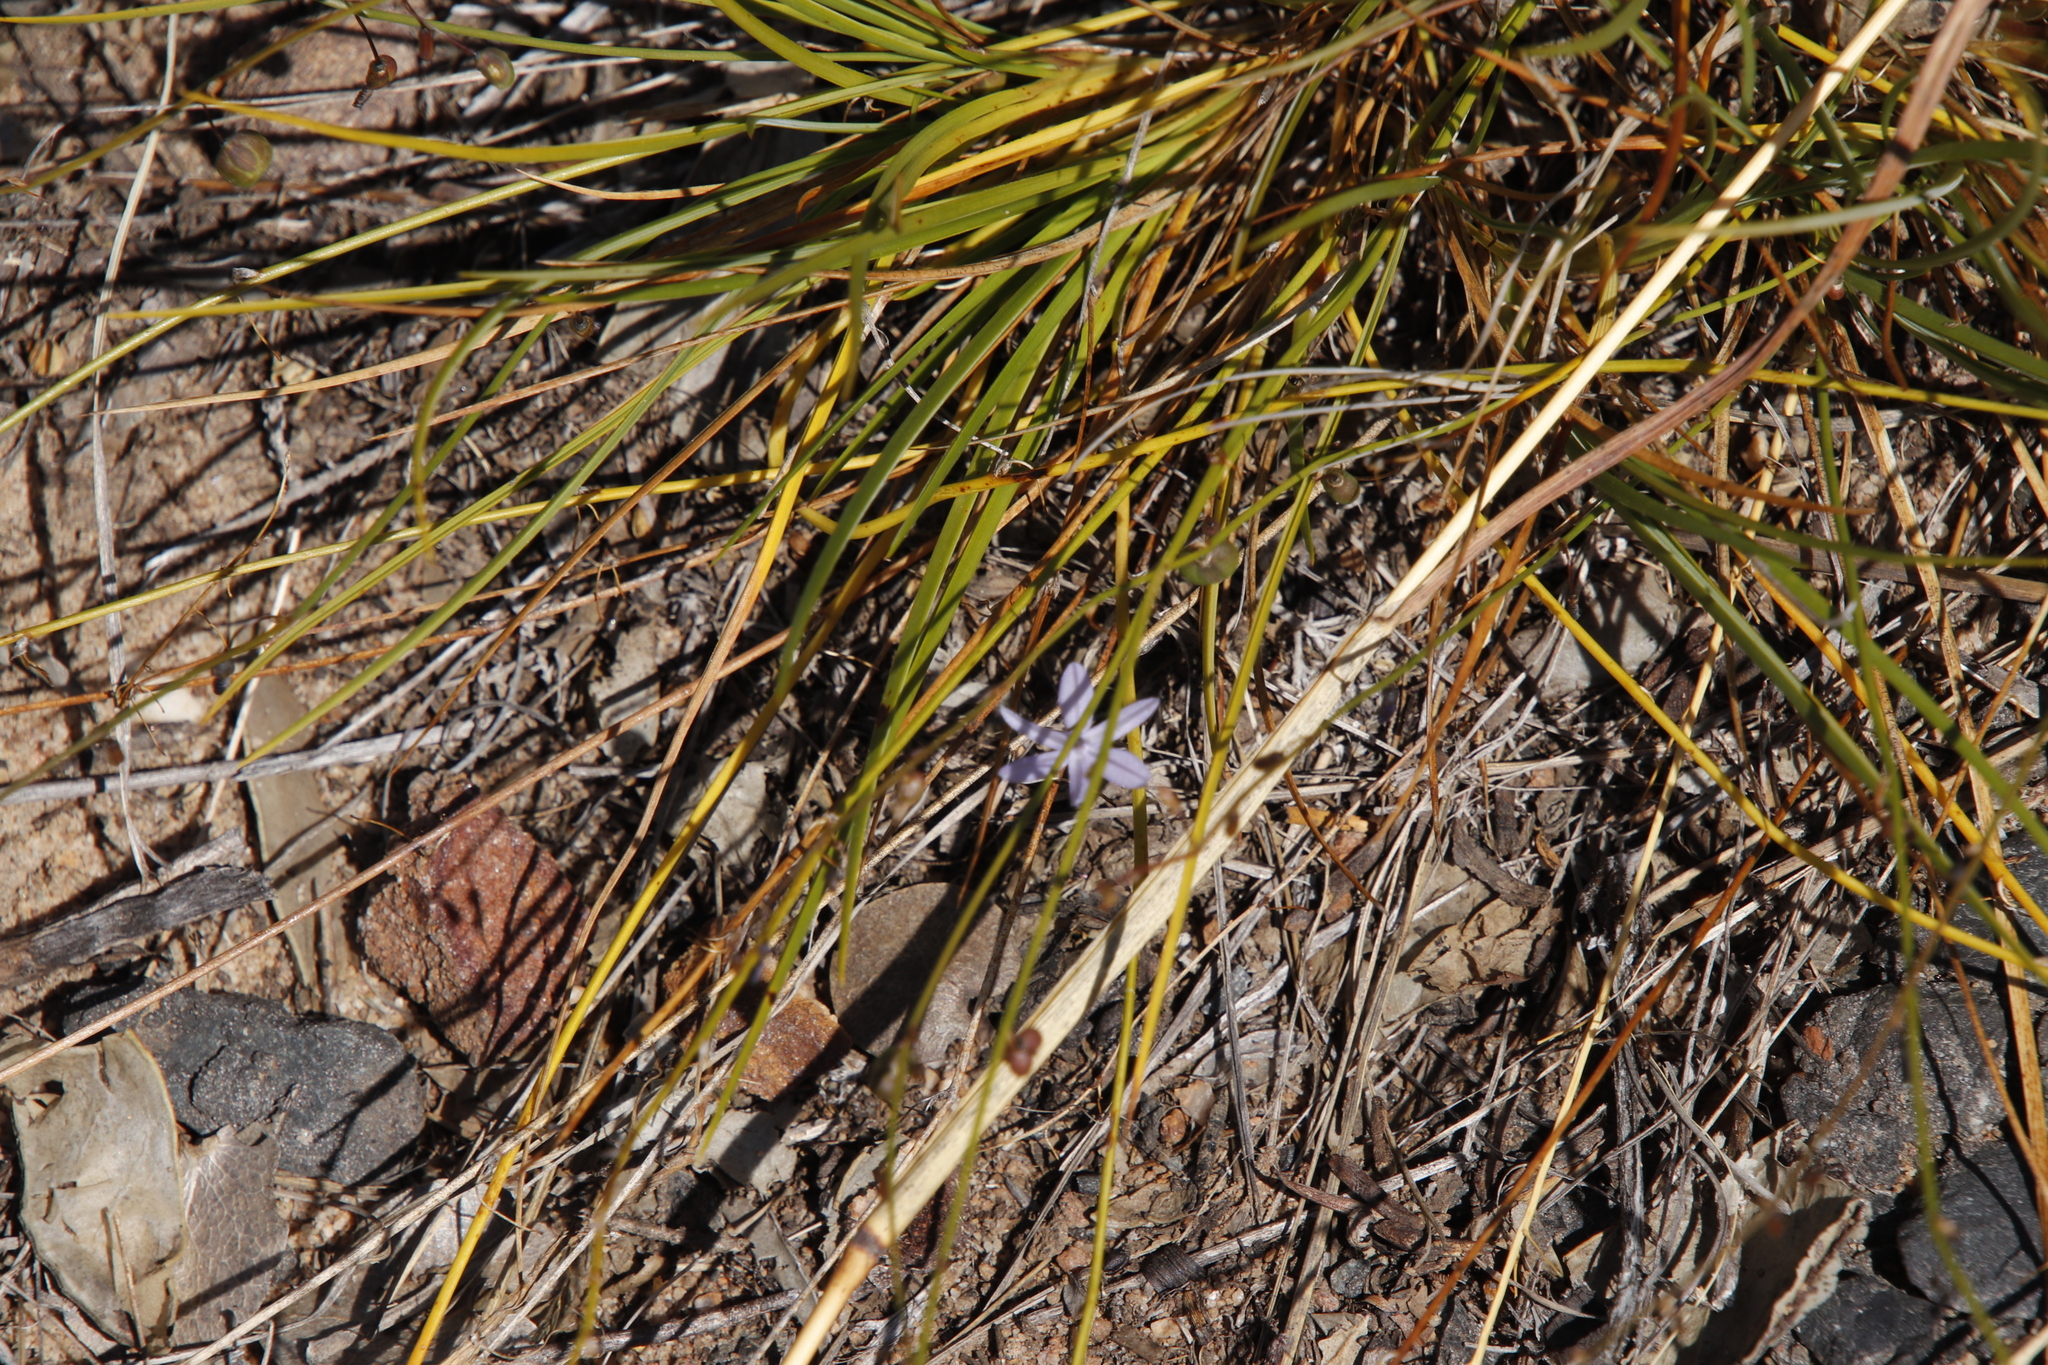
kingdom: Plantae
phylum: Tracheophyta
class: Liliopsida
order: Asparagales
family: Asphodelaceae
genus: Caesia
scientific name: Caesia contorta
